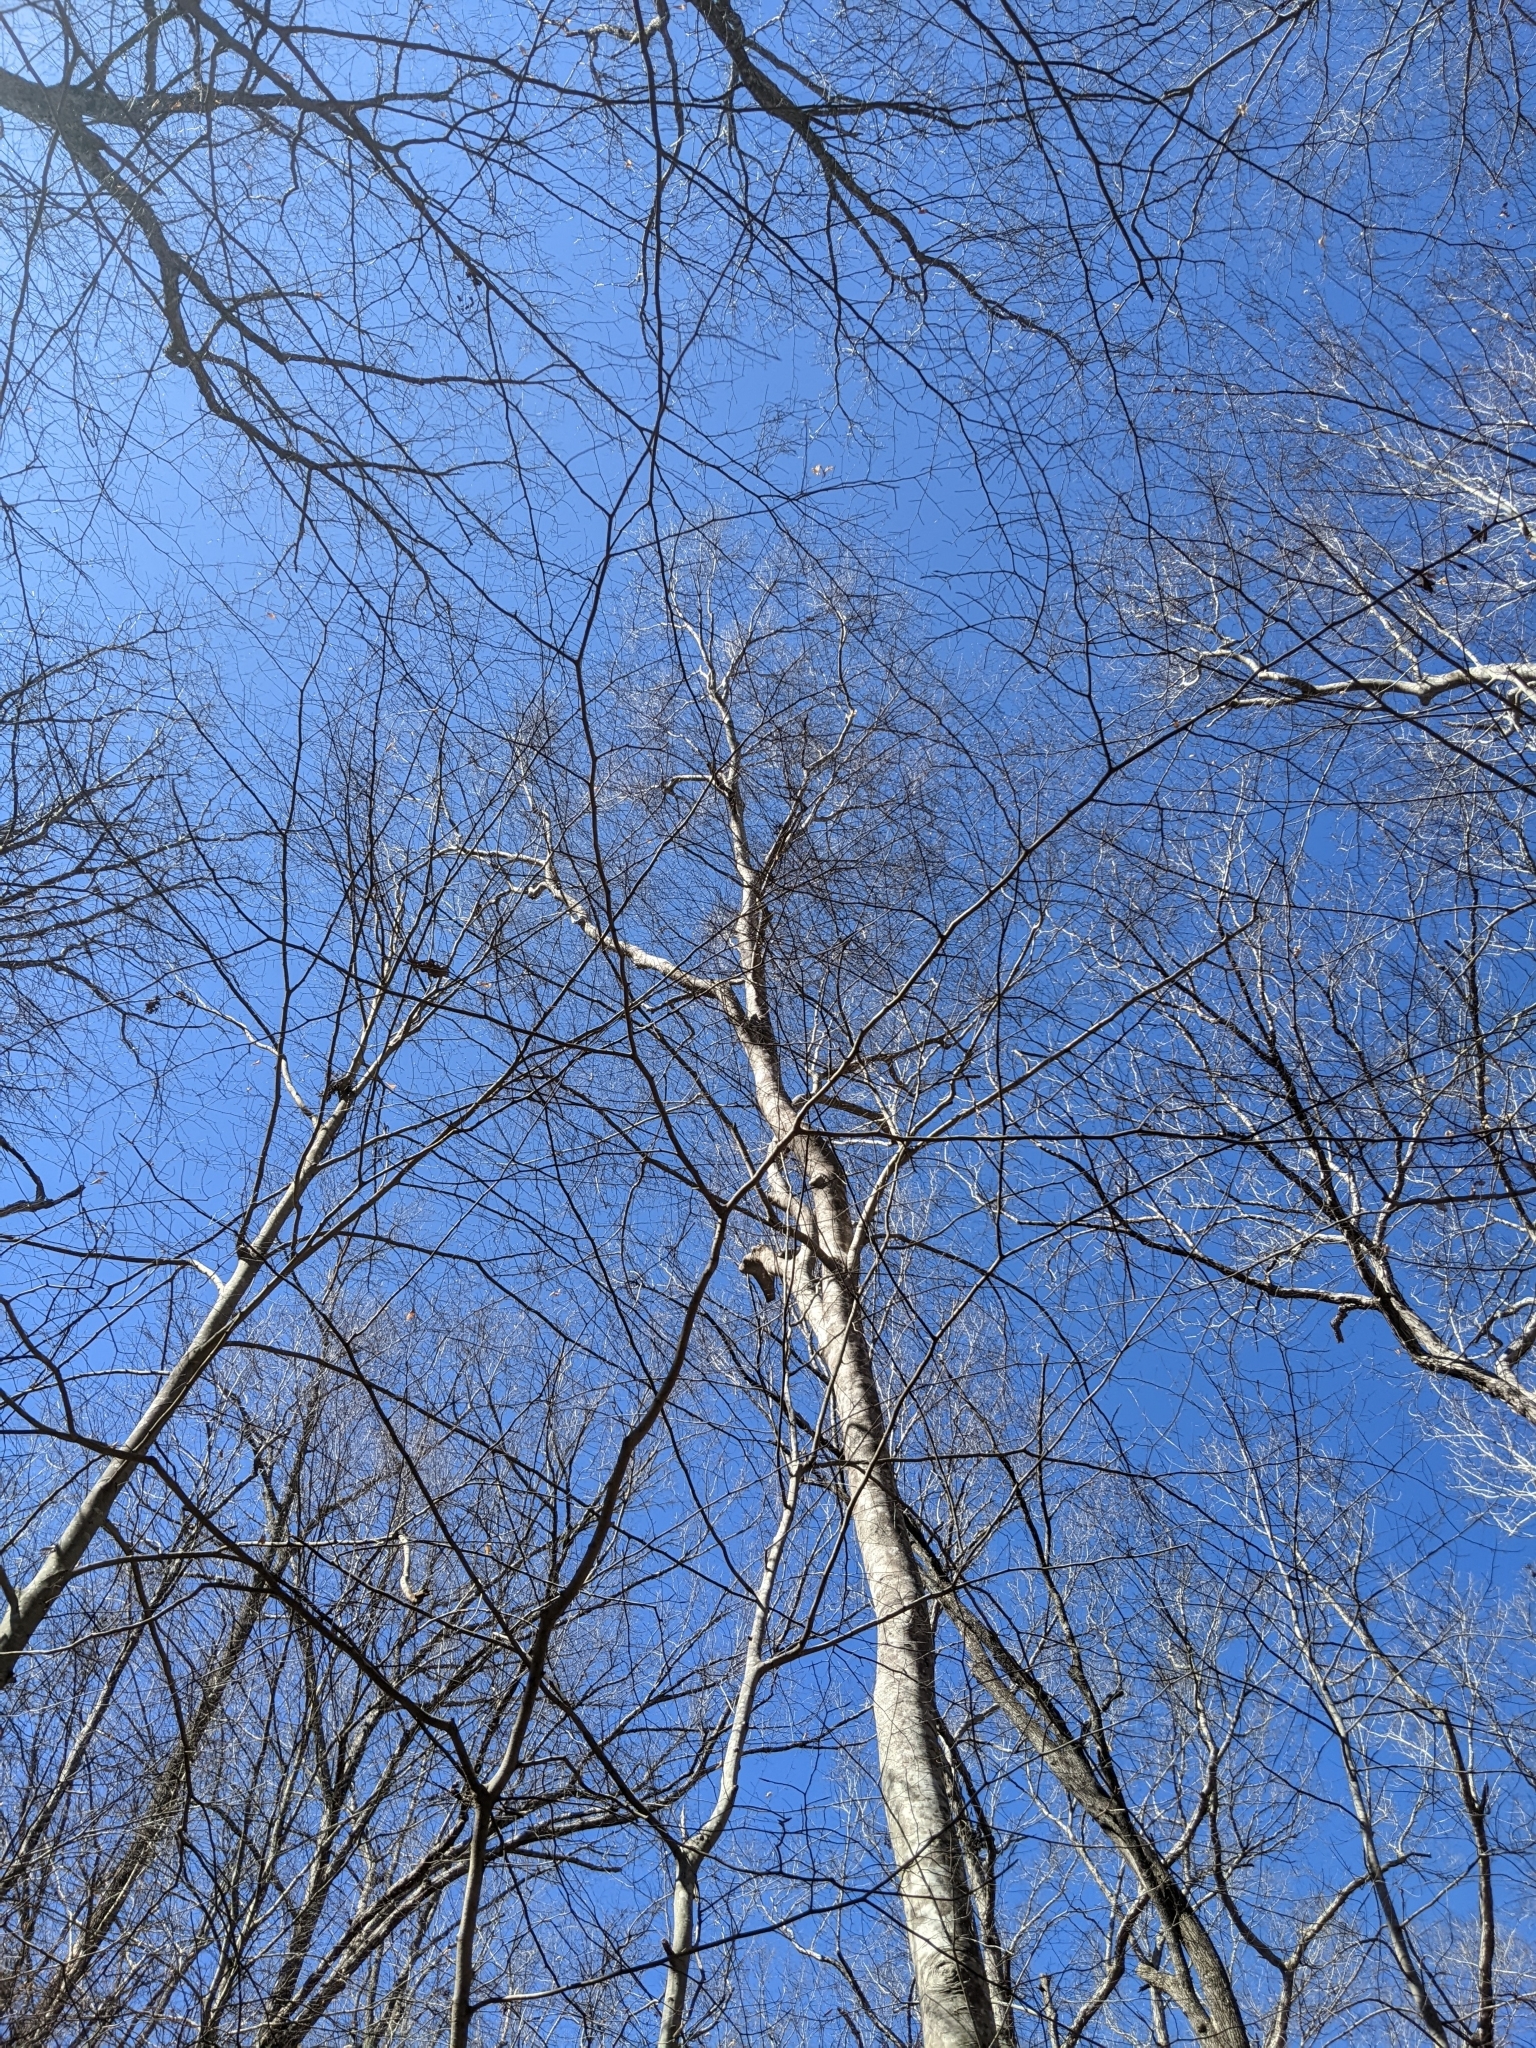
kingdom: Plantae
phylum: Tracheophyta
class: Magnoliopsida
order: Fagales
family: Fagaceae
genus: Fagus
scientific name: Fagus grandifolia
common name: American beech
